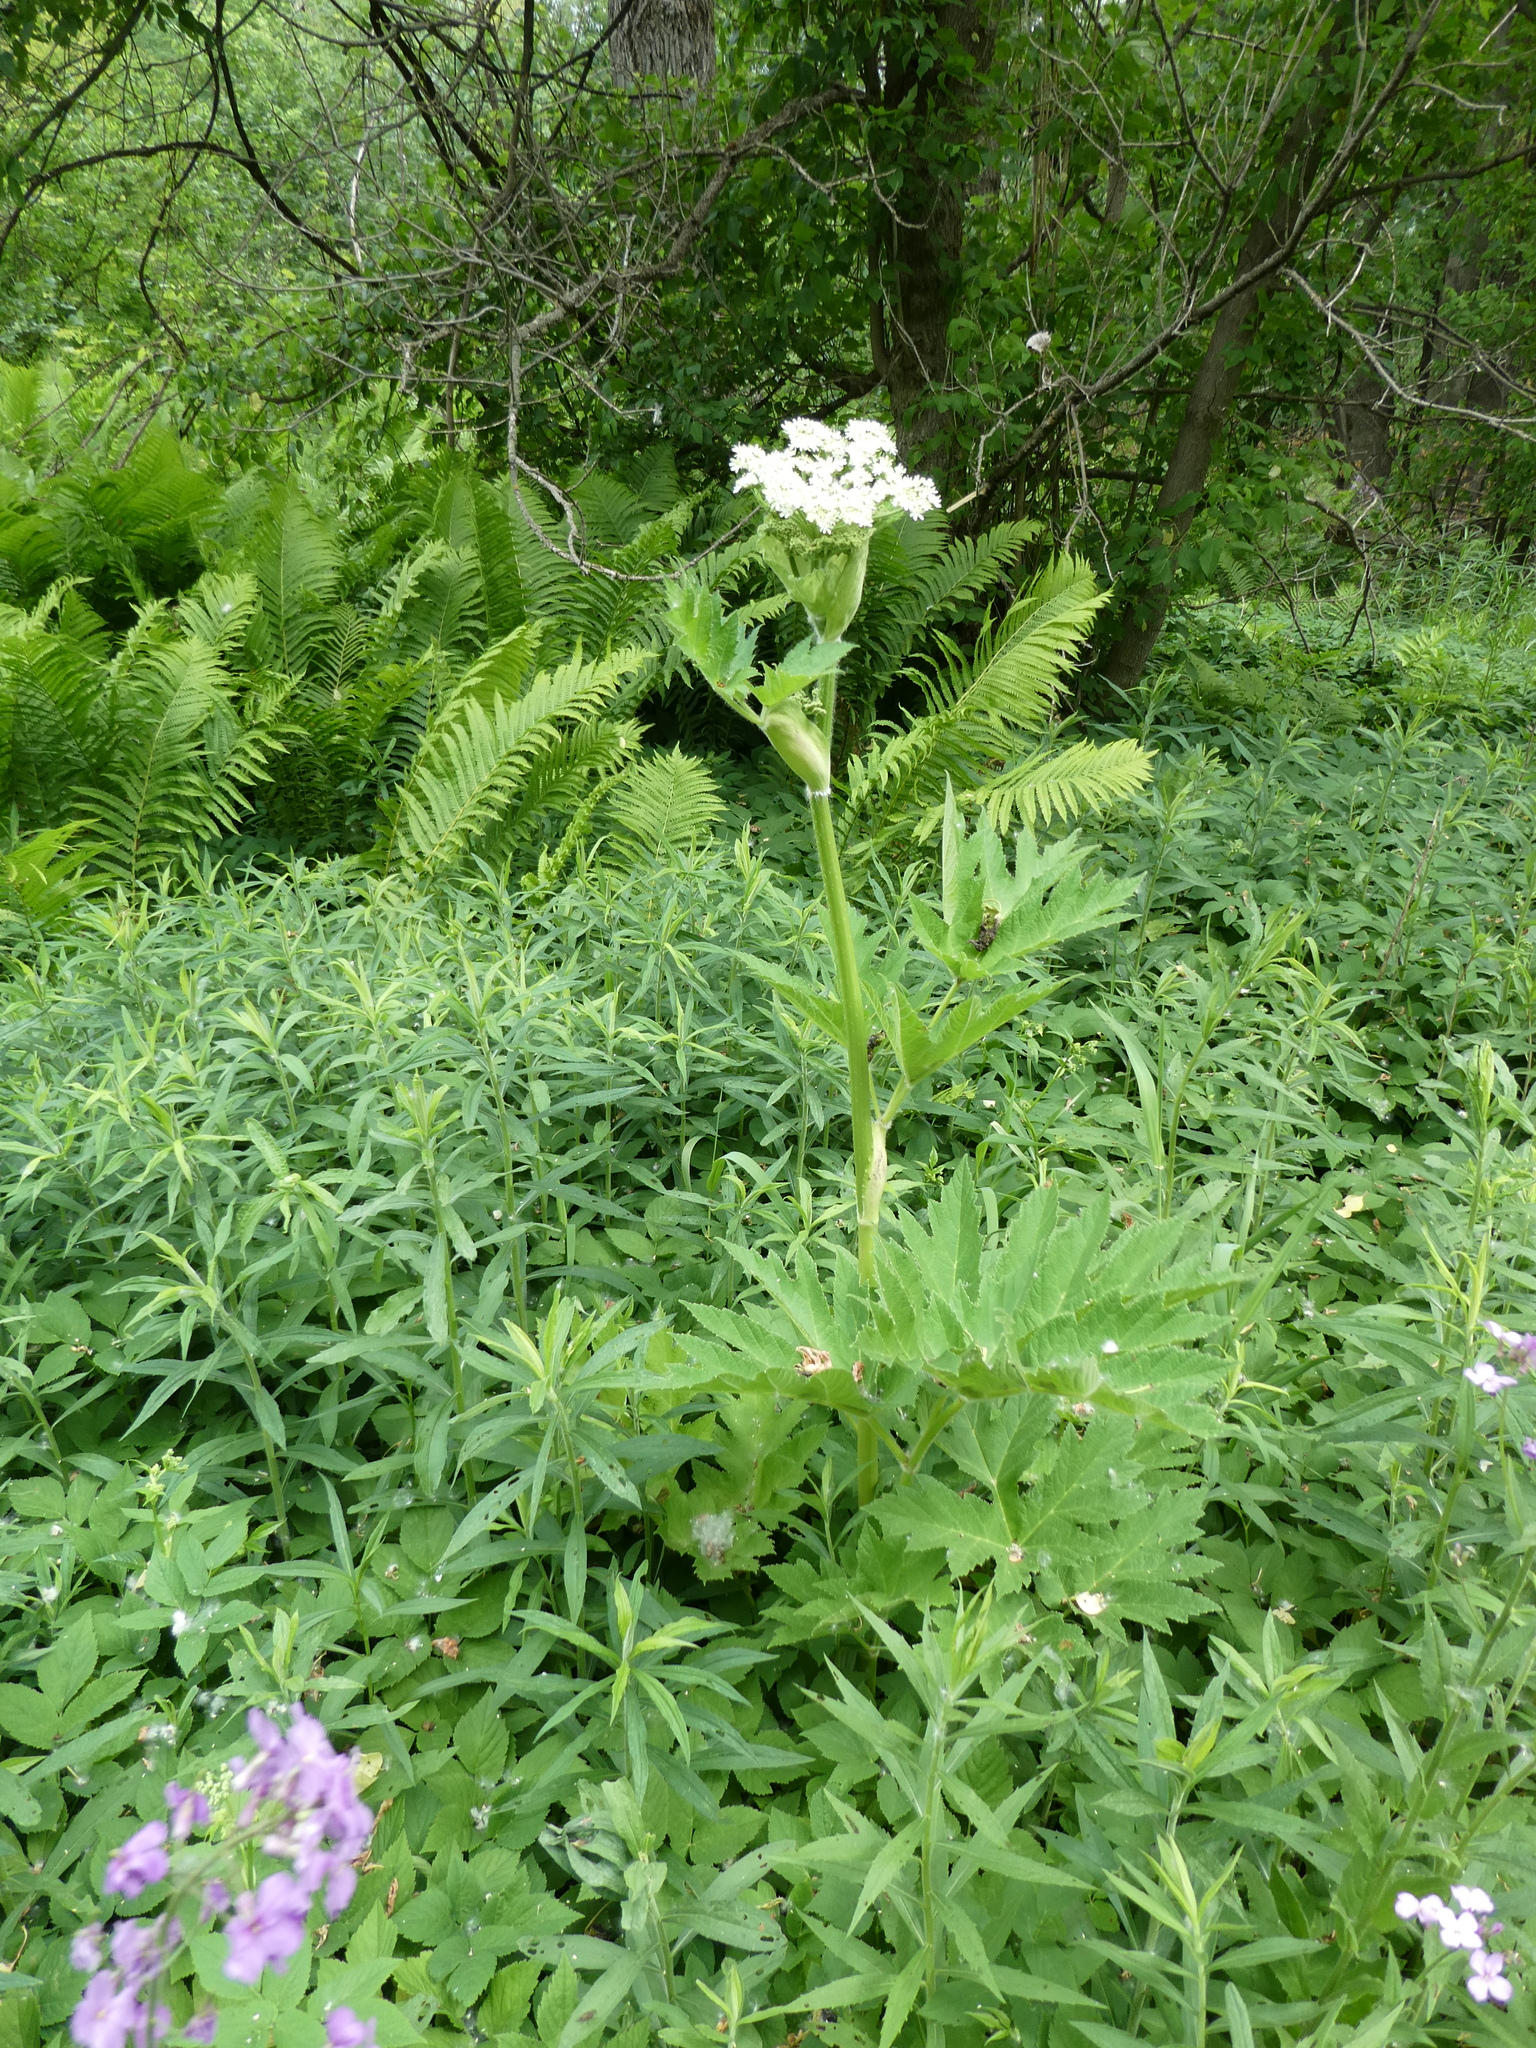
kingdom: Plantae
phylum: Tracheophyta
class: Magnoliopsida
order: Apiales
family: Apiaceae
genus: Heracleum
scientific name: Heracleum maximum
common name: American cow parsnip
